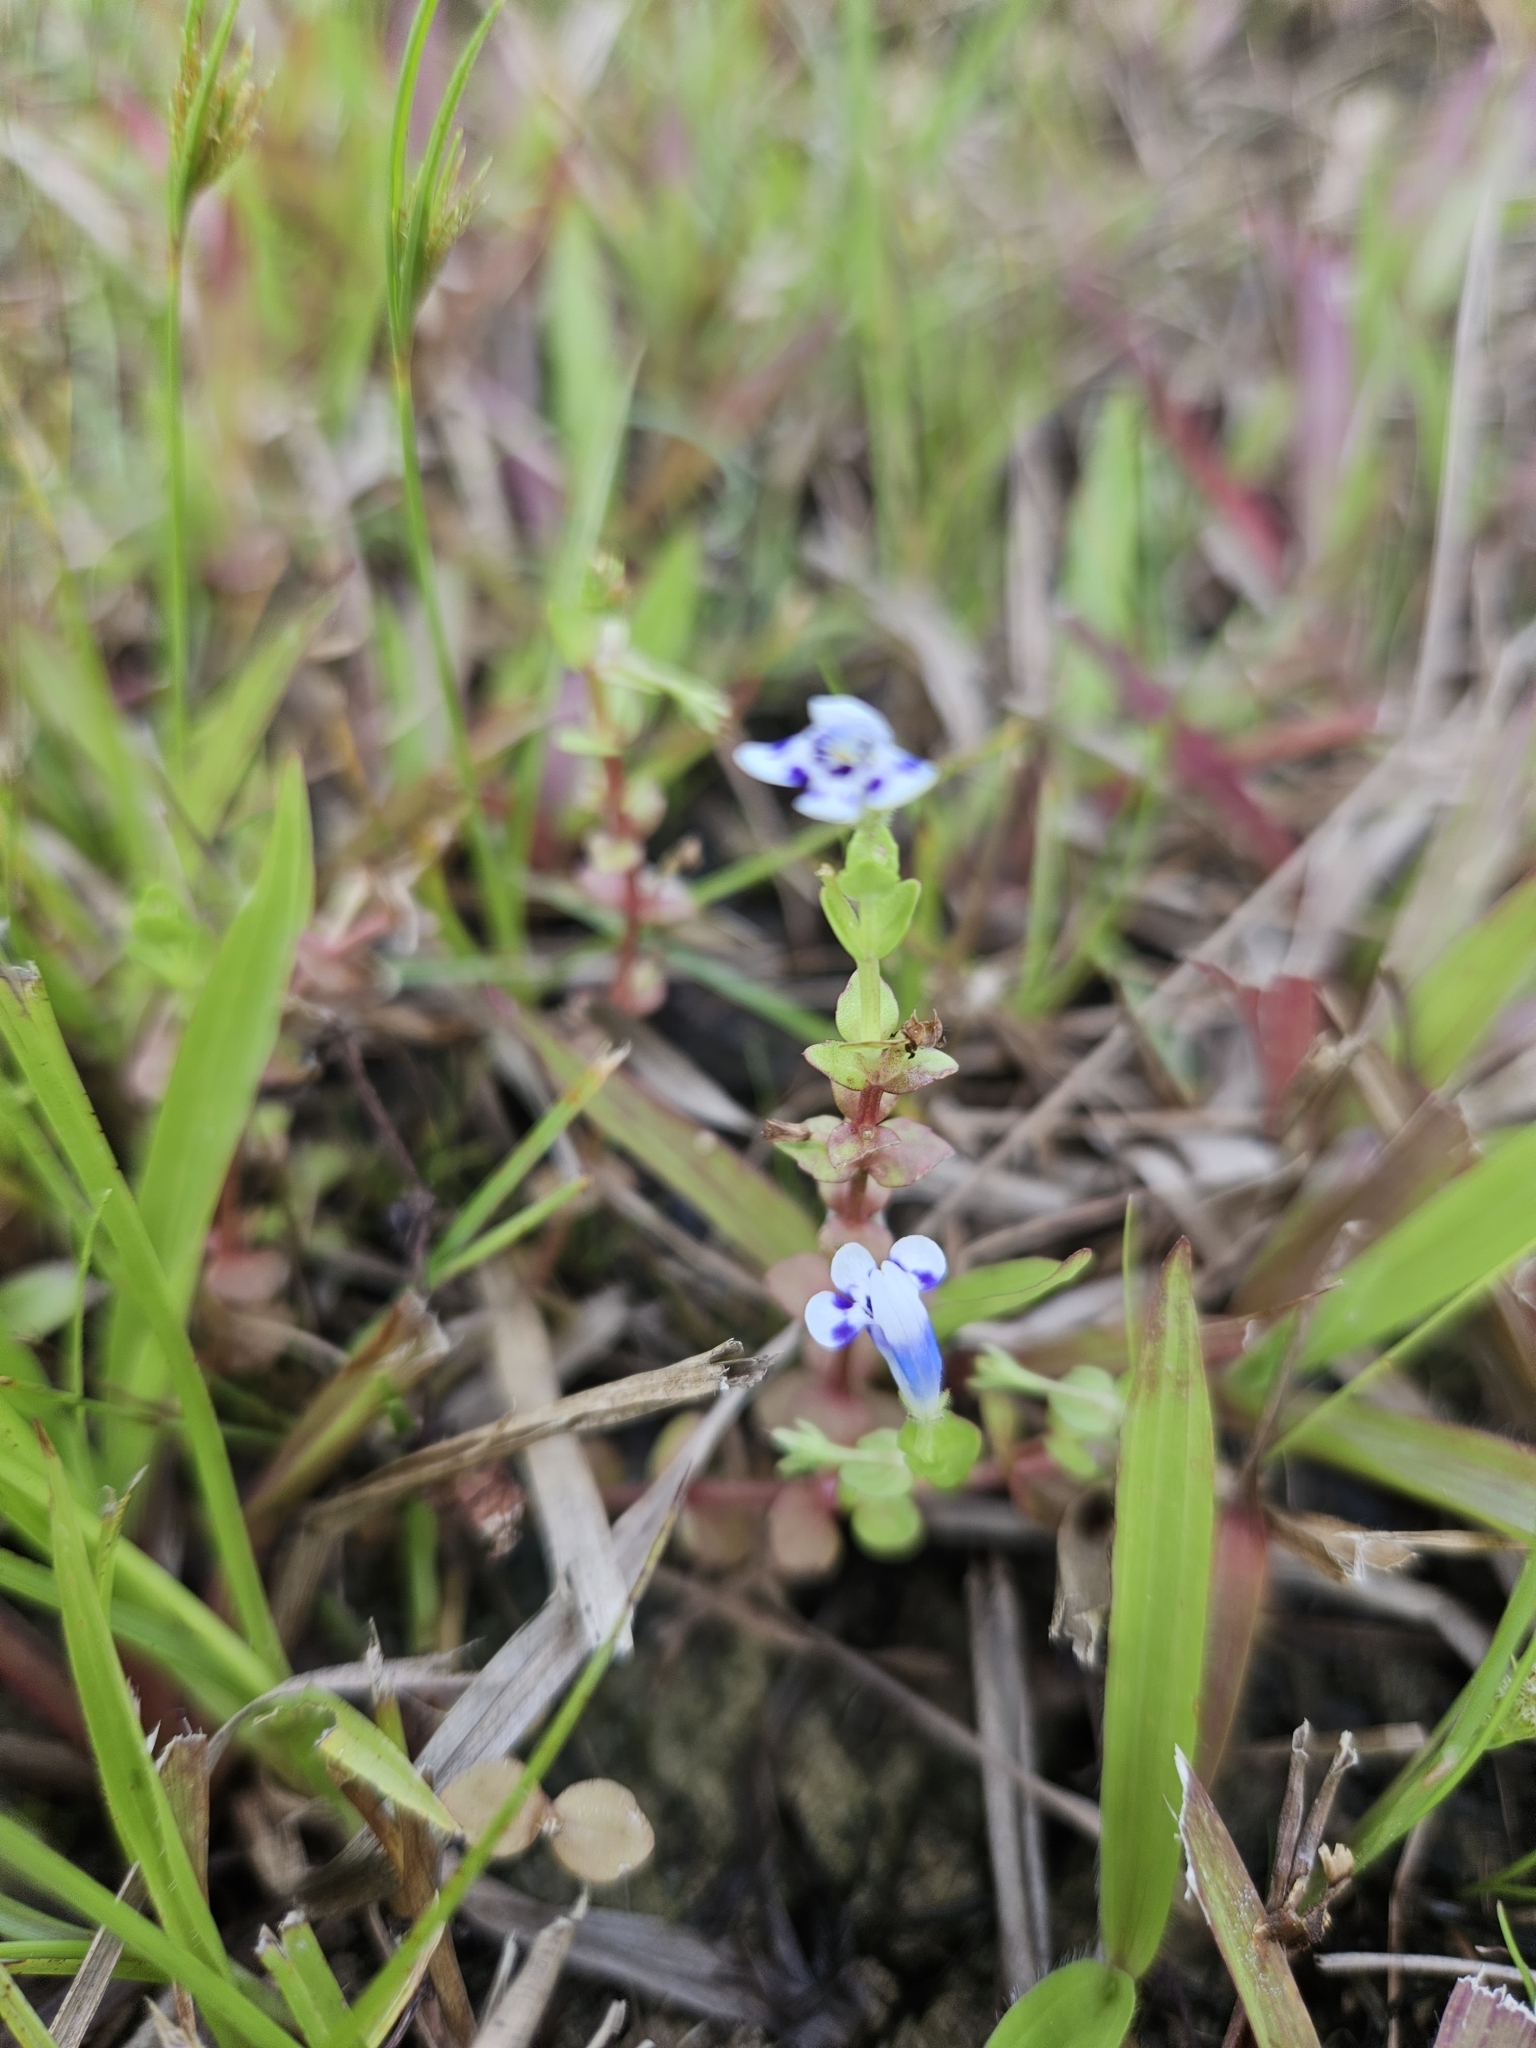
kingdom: Plantae
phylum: Tracheophyta
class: Magnoliopsida
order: Lamiales
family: Linderniaceae
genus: Lindernia
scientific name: Lindernia rotundifolia
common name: Baby’s tears
